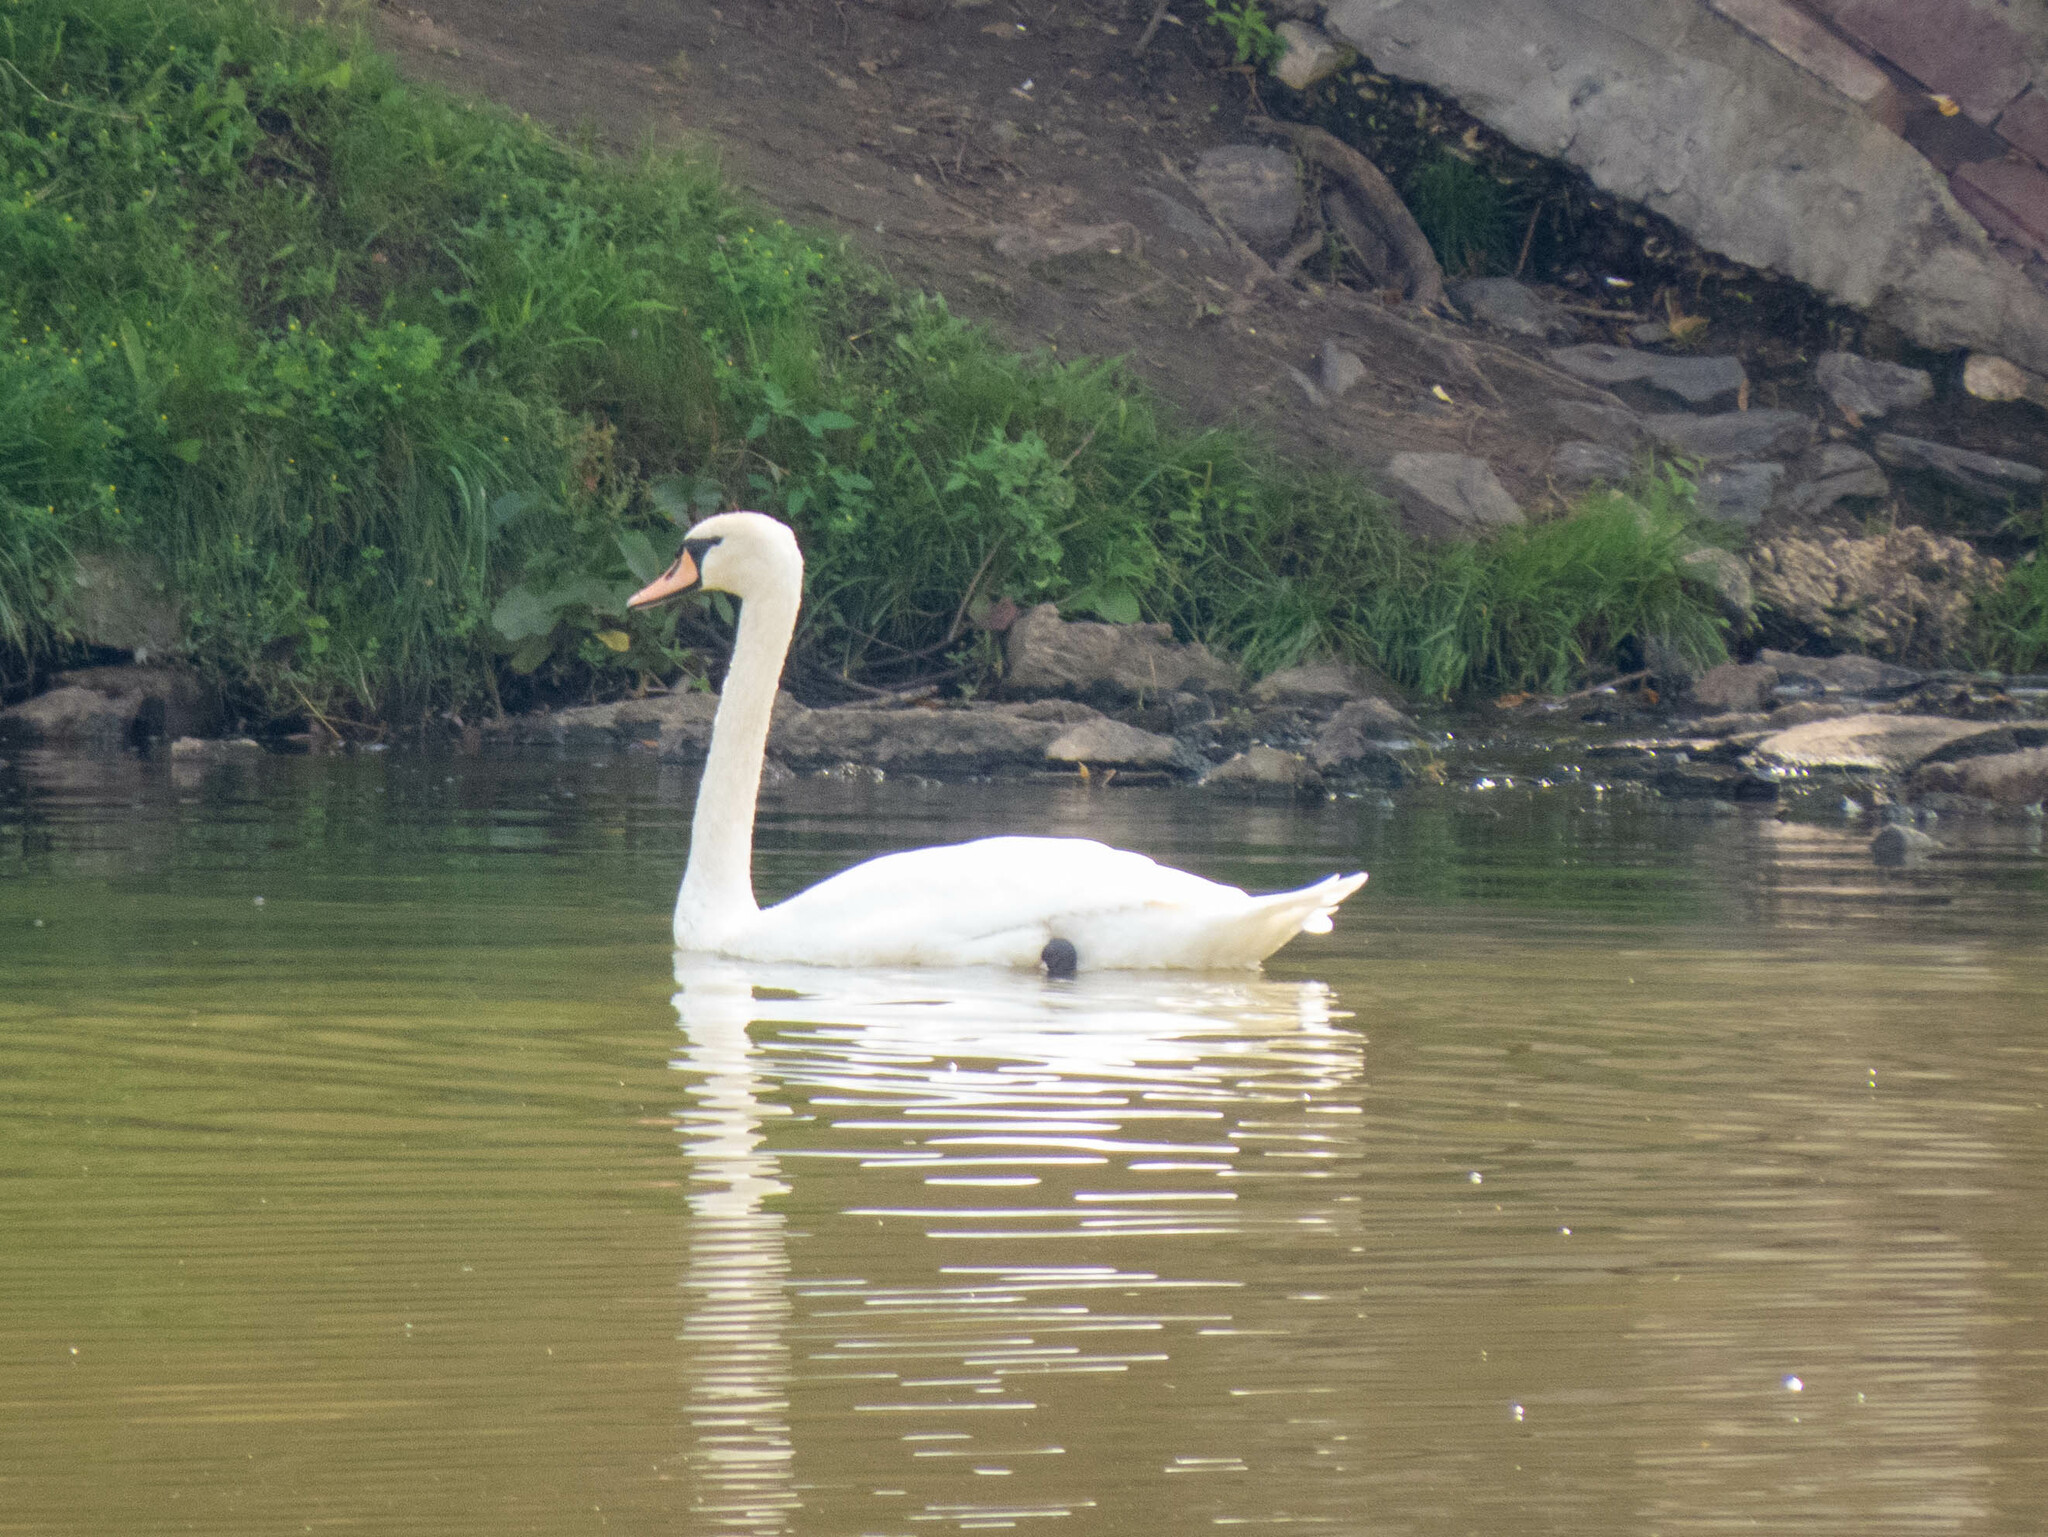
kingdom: Animalia
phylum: Chordata
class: Aves
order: Anseriformes
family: Anatidae
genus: Cygnus
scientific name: Cygnus olor
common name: Mute swan
